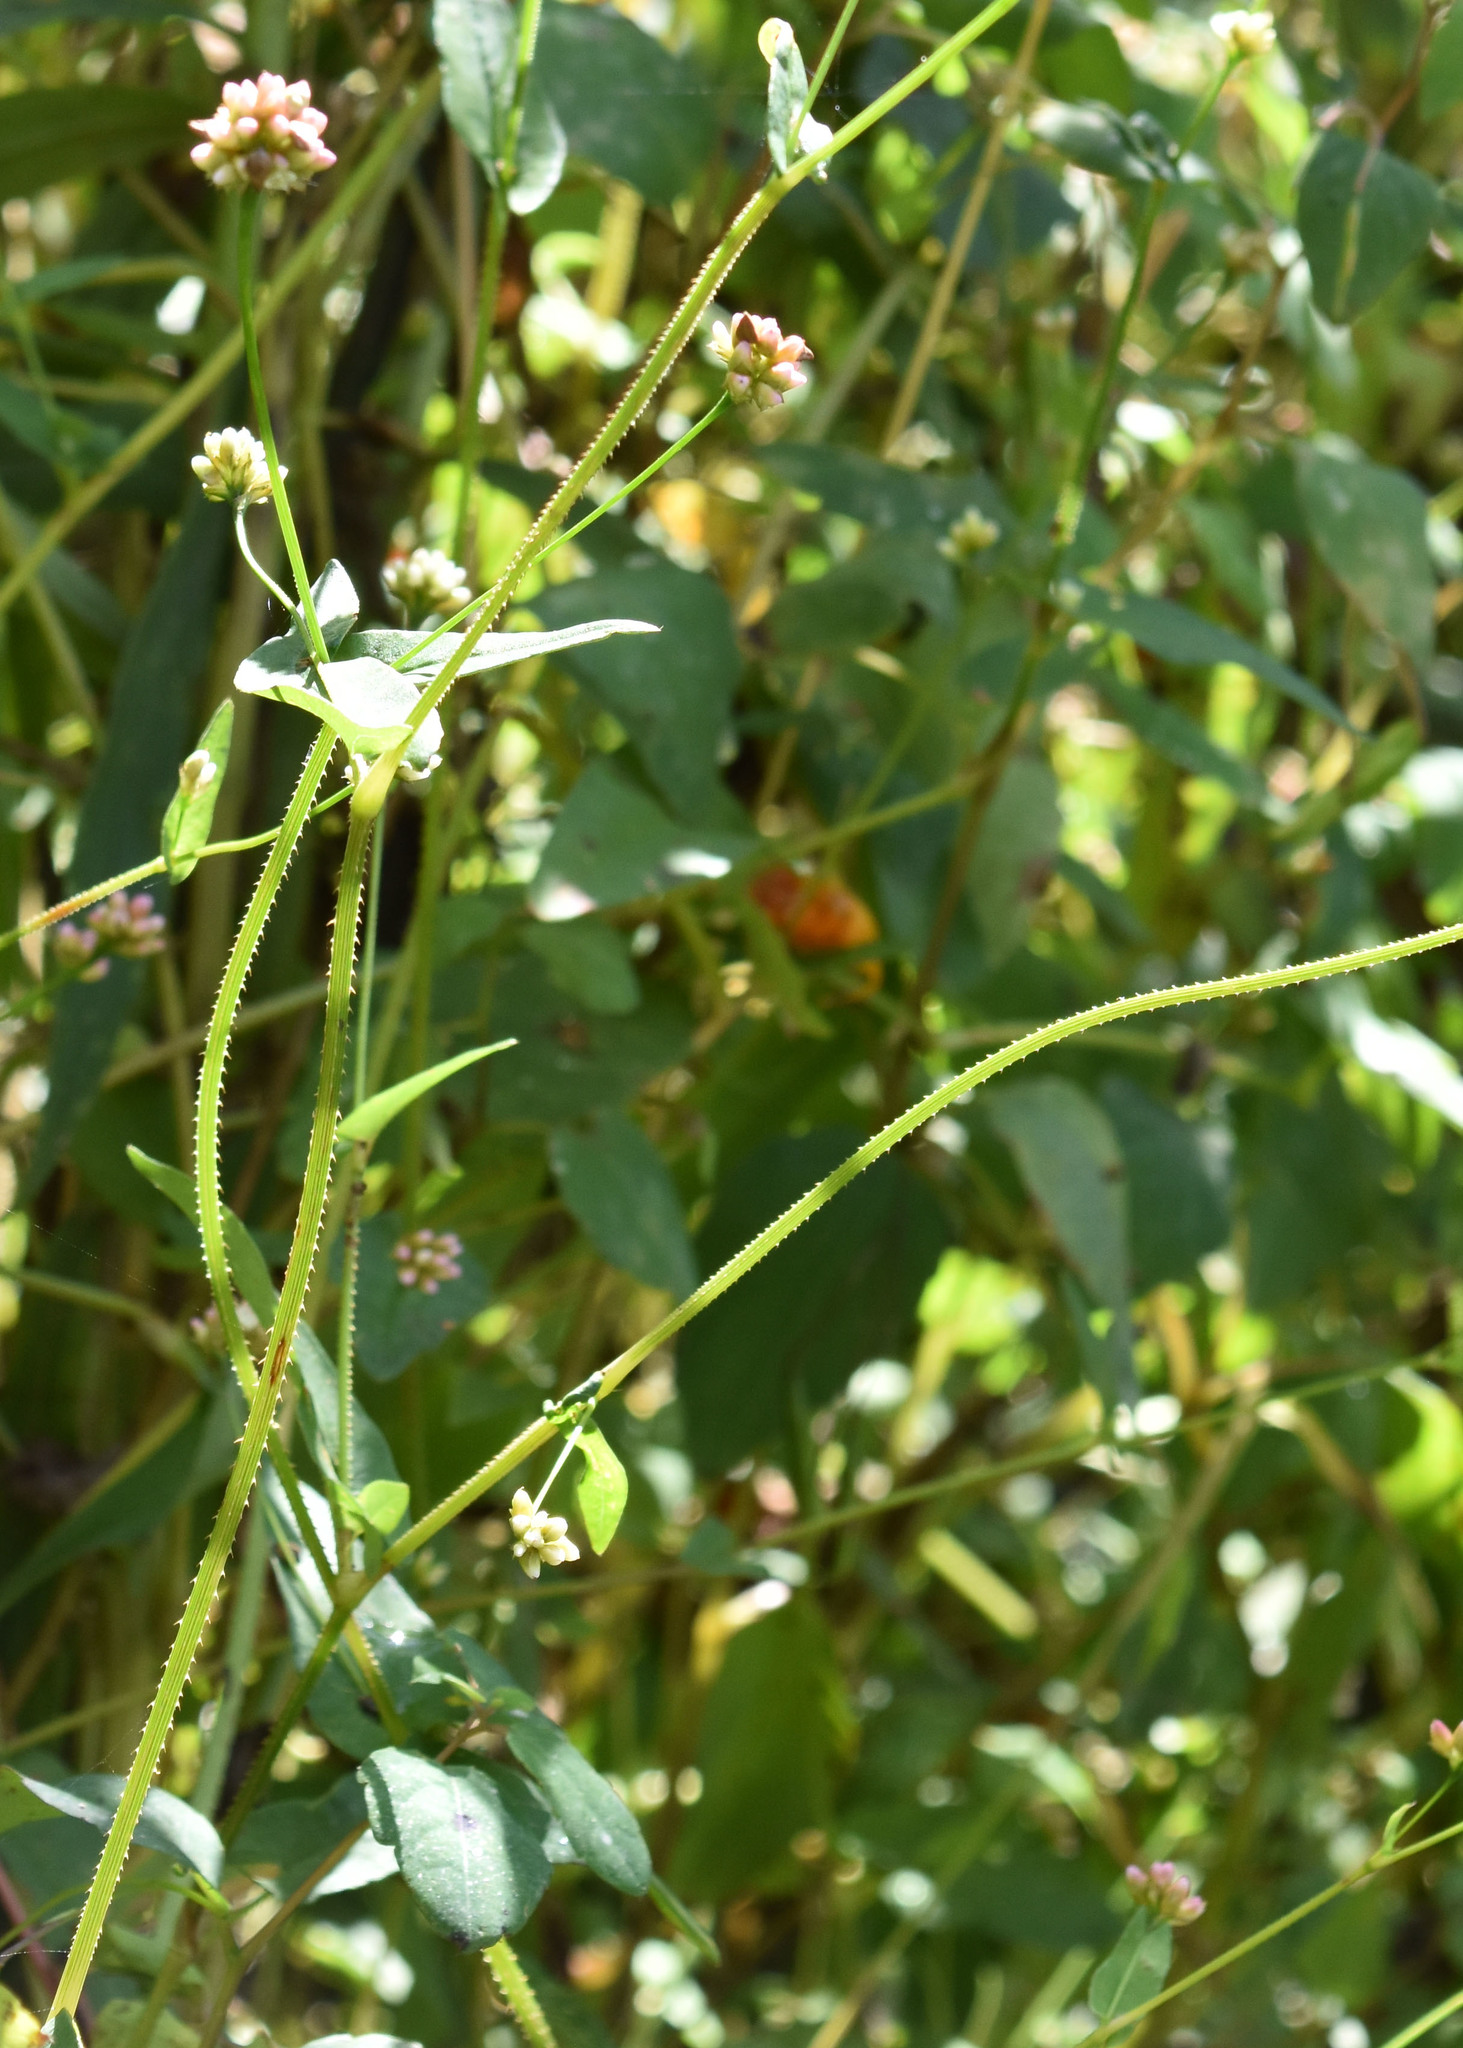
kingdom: Plantae
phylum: Tracheophyta
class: Magnoliopsida
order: Caryophyllales
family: Polygonaceae
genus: Persicaria
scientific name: Persicaria sagittata
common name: American tearthumb
